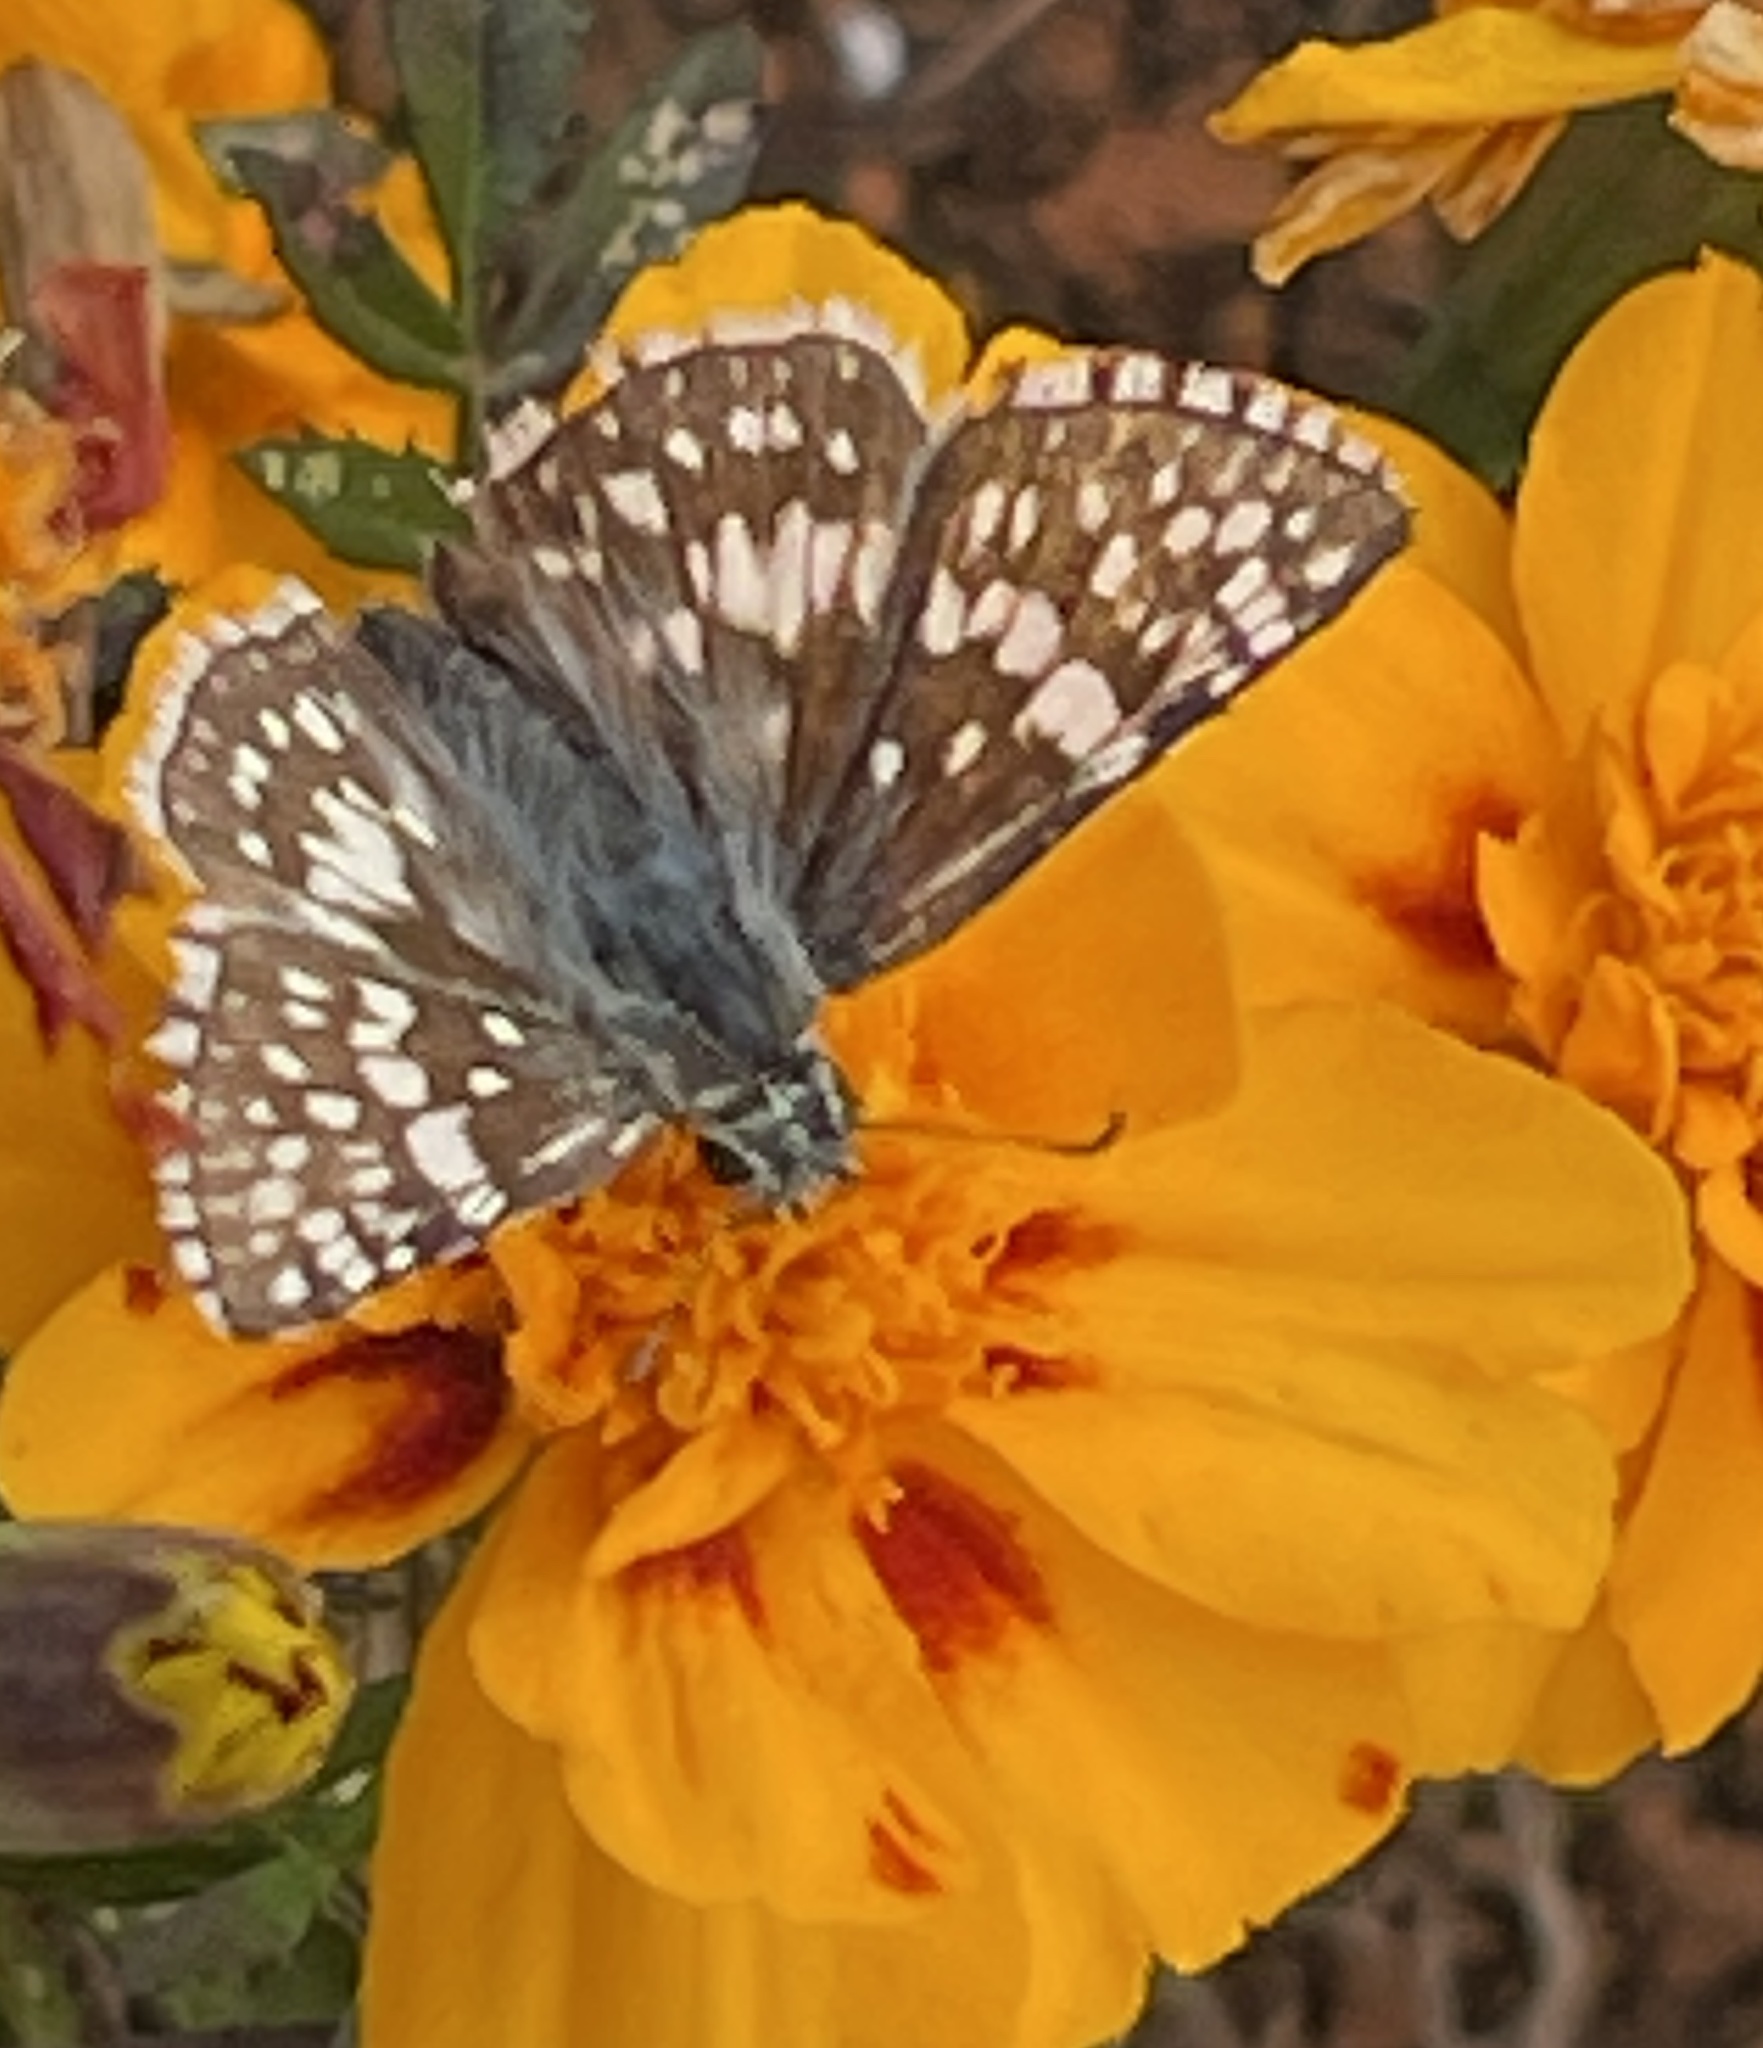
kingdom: Animalia
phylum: Arthropoda
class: Insecta
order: Lepidoptera
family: Hesperiidae
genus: Burnsius
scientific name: Burnsius communis
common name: Common checkered-skipper
